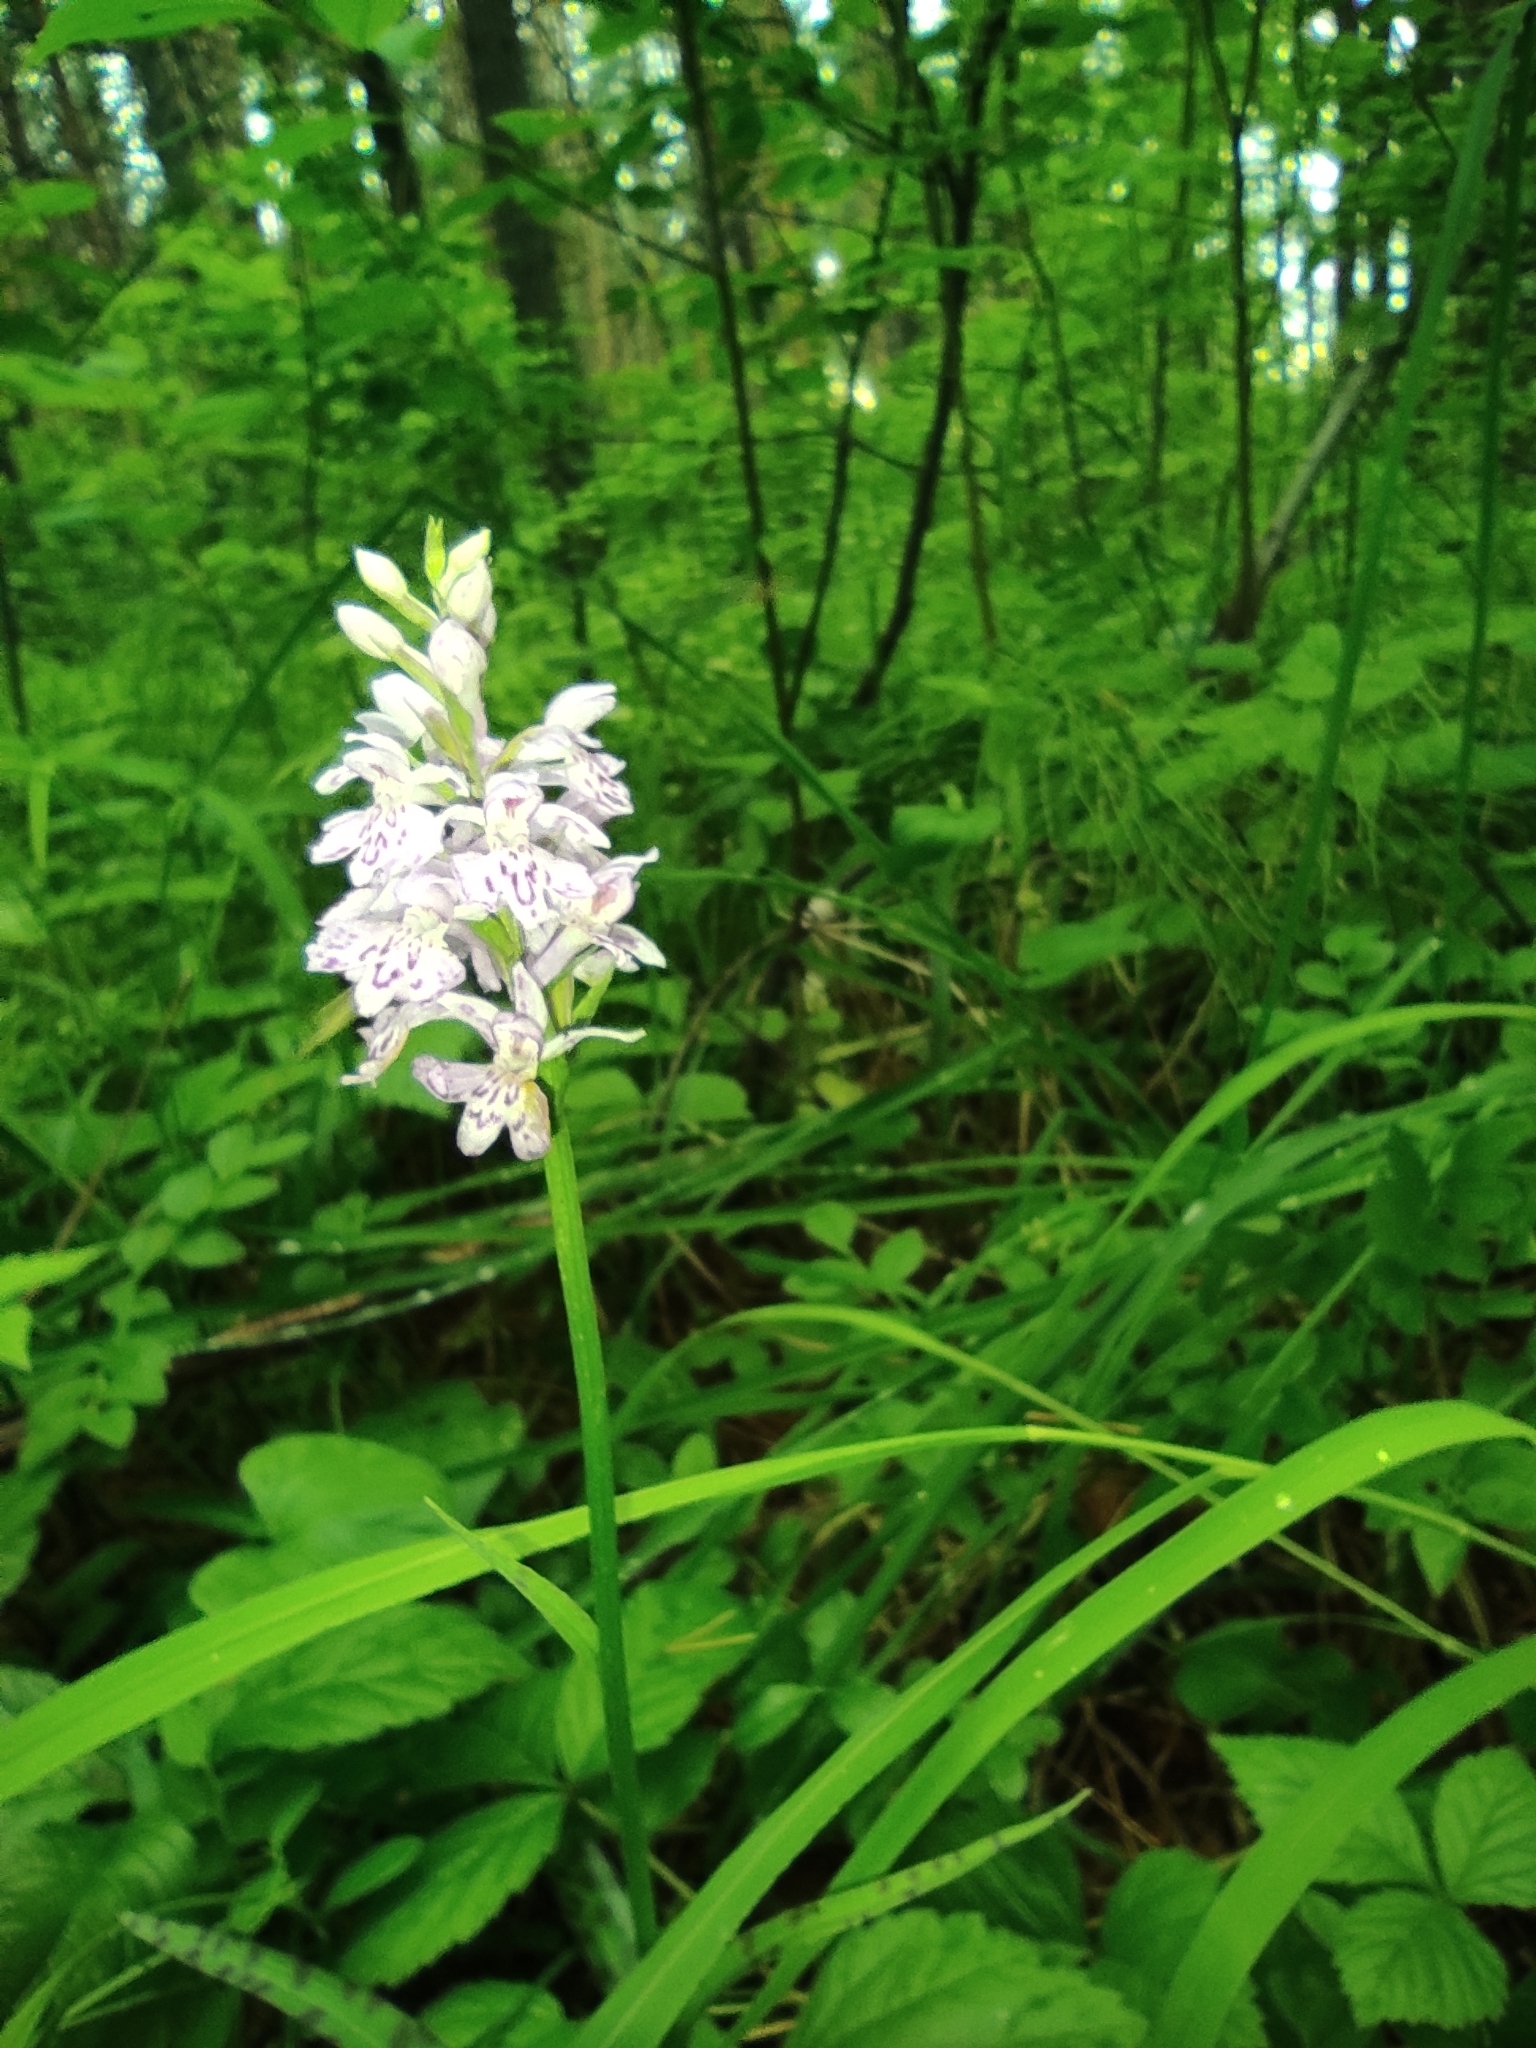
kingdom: Plantae
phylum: Tracheophyta
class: Liliopsida
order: Asparagales
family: Orchidaceae
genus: Dactylorhiza
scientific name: Dactylorhiza maculata
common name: Heath spotted-orchid
